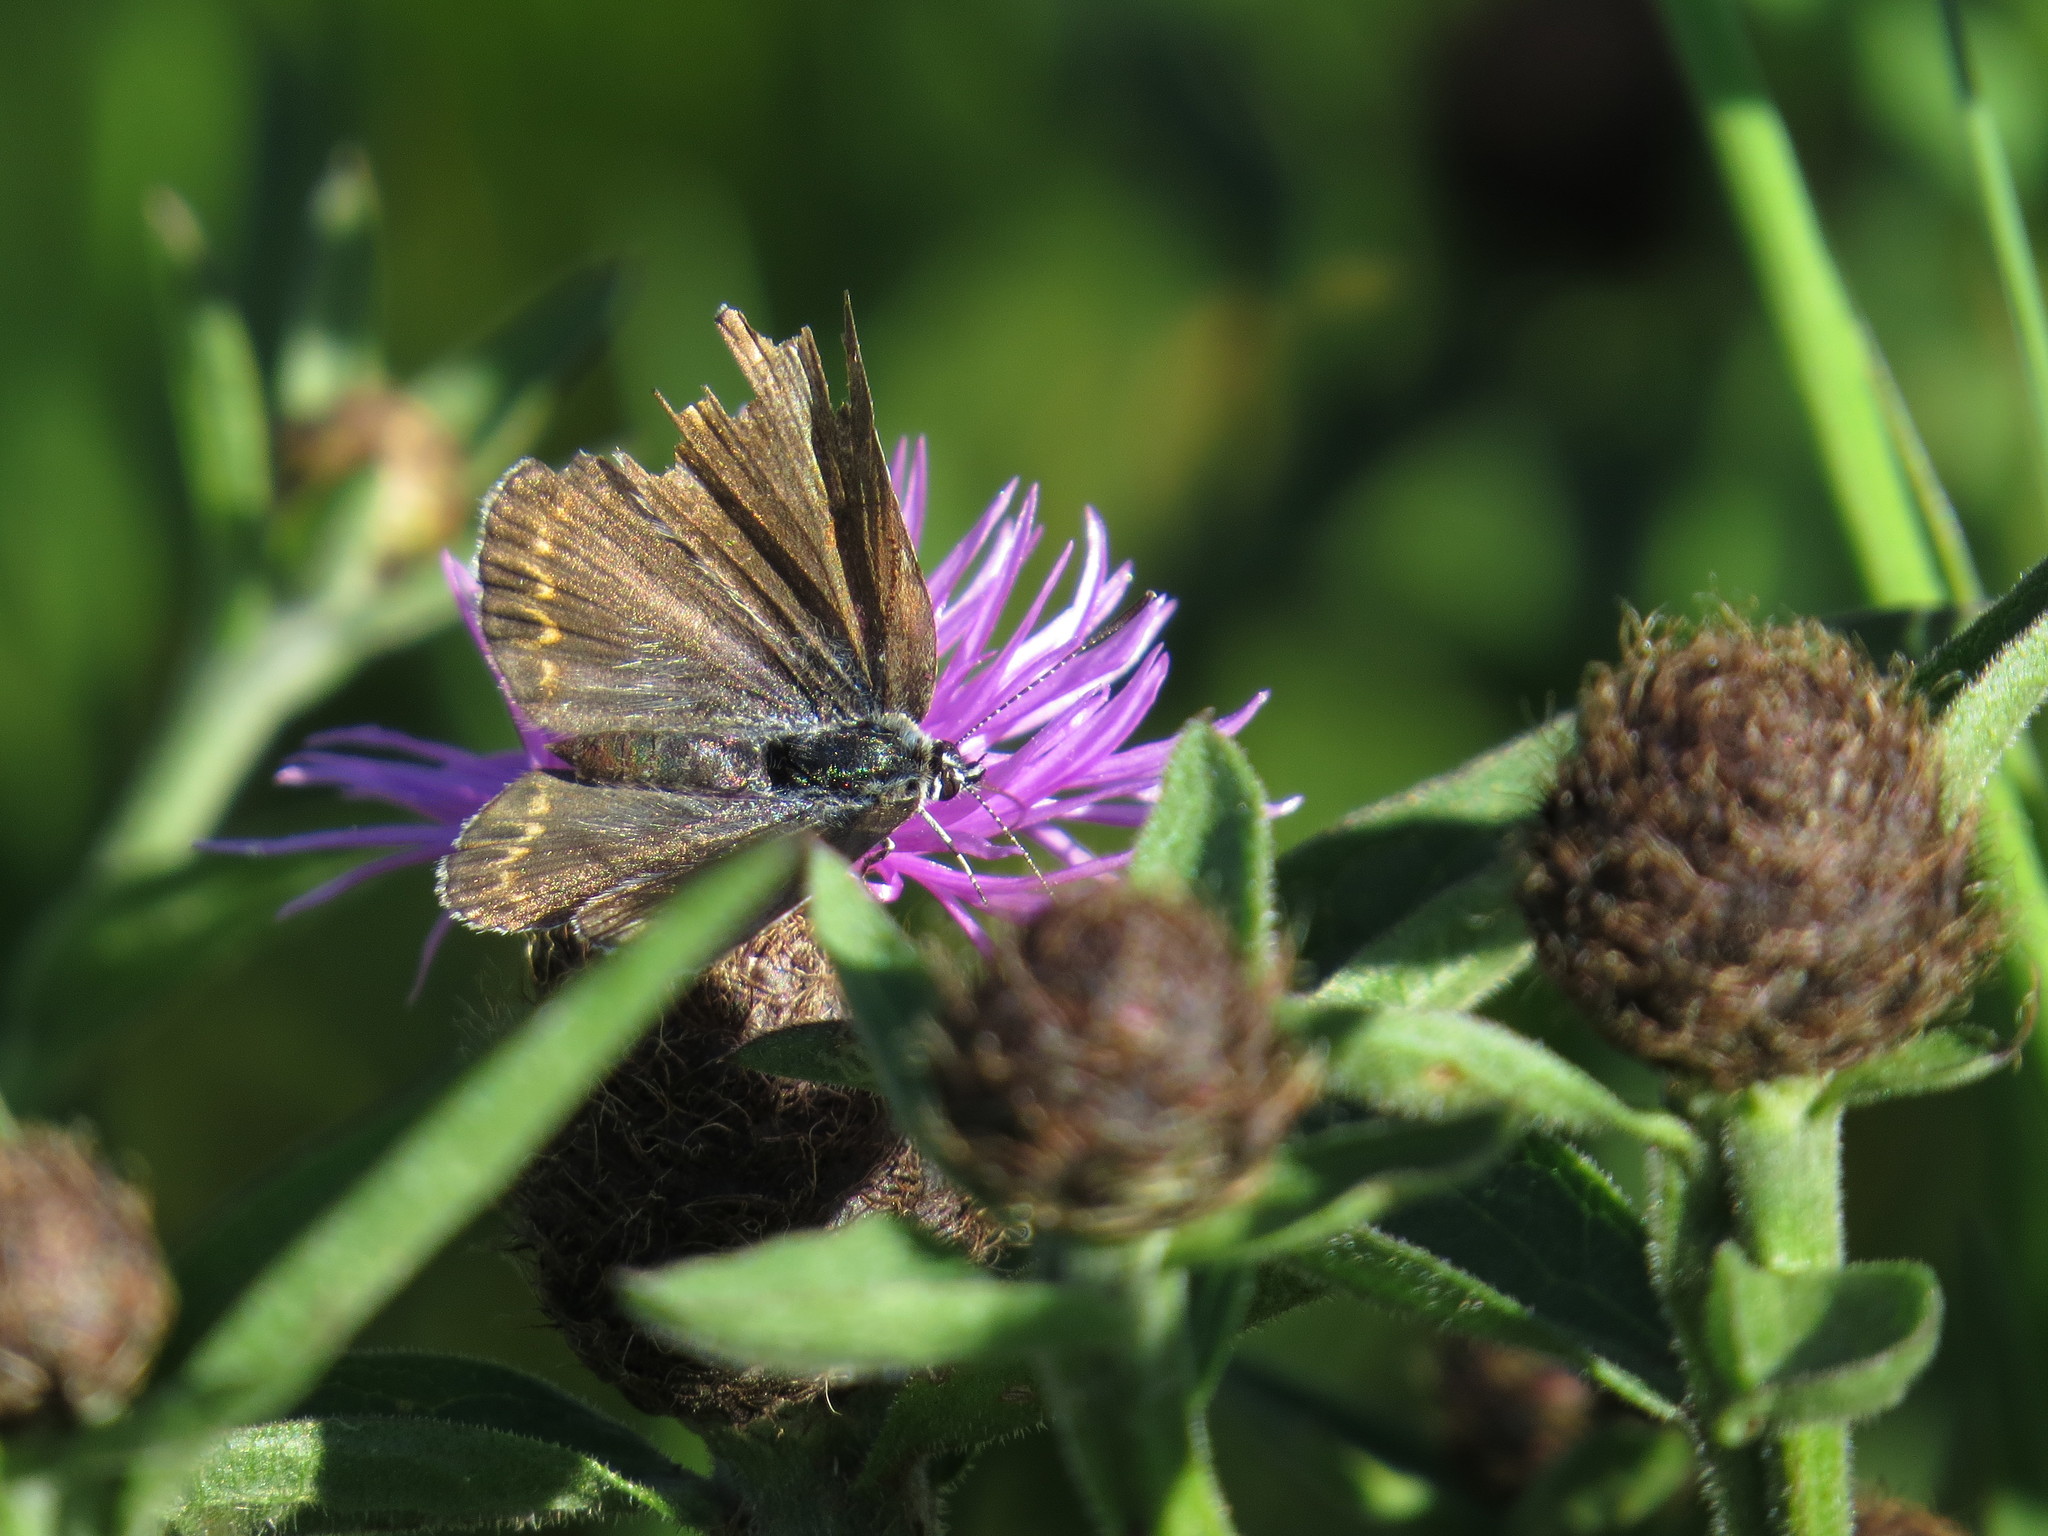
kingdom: Animalia
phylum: Arthropoda
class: Insecta
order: Lepidoptera
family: Lycaenidae
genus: Plebejus
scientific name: Plebejus argus
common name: Silver-studded blue
